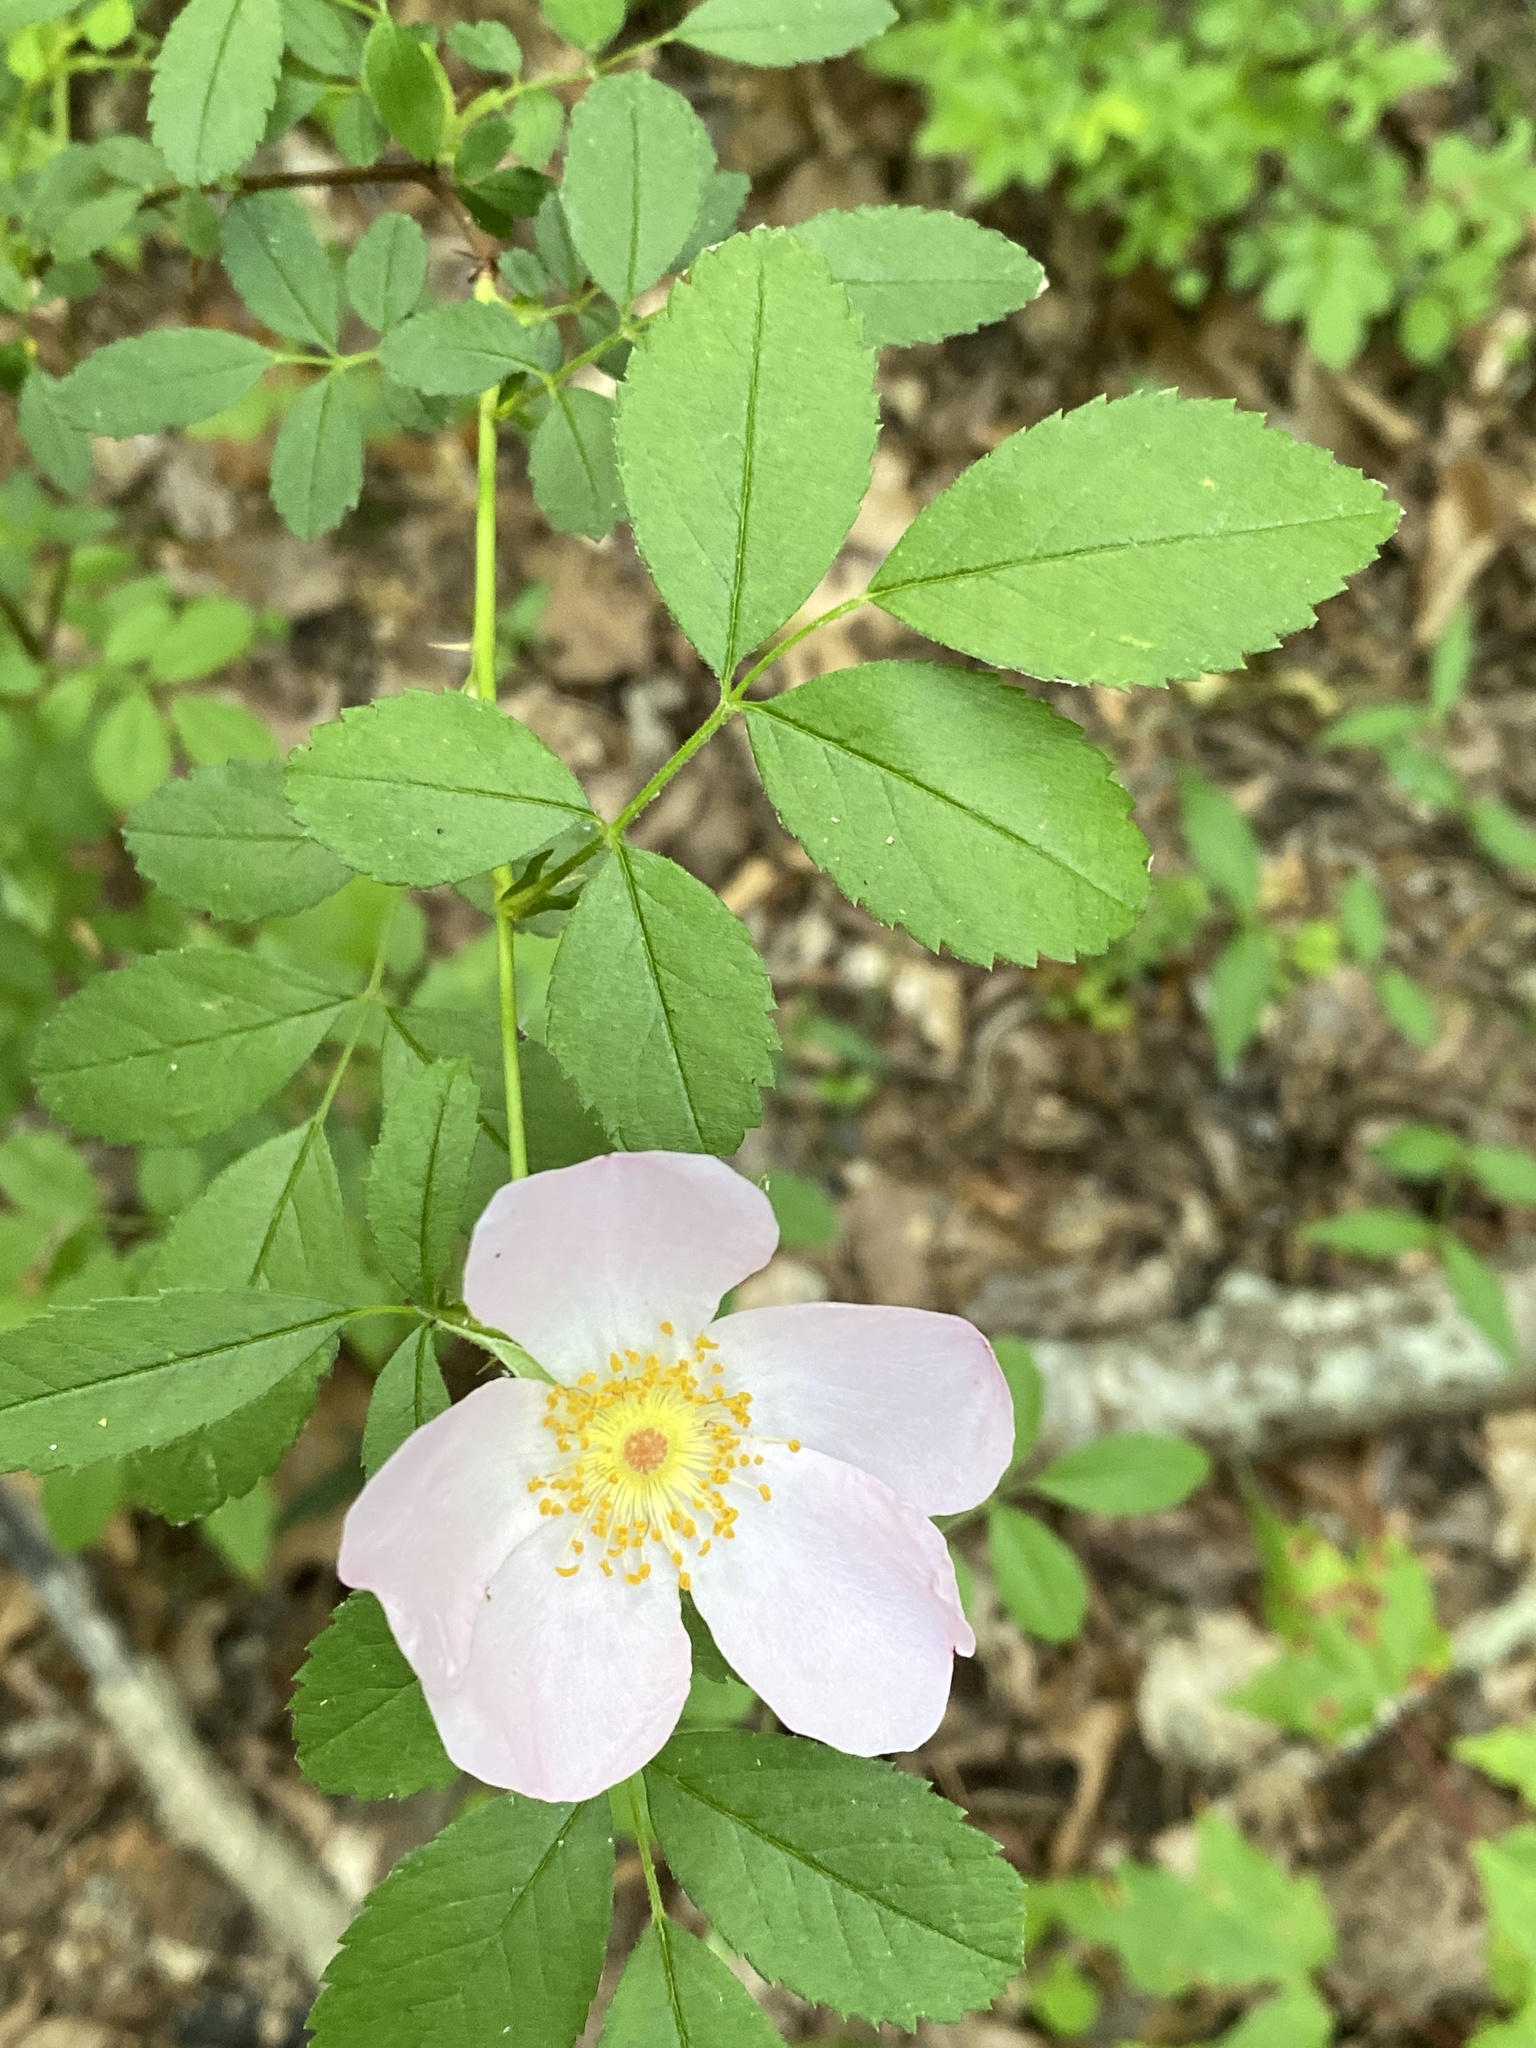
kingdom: Plantae
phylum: Tracheophyta
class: Magnoliopsida
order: Rosales
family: Rosaceae
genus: Rosa
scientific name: Rosa carolina
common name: Pasture rose
